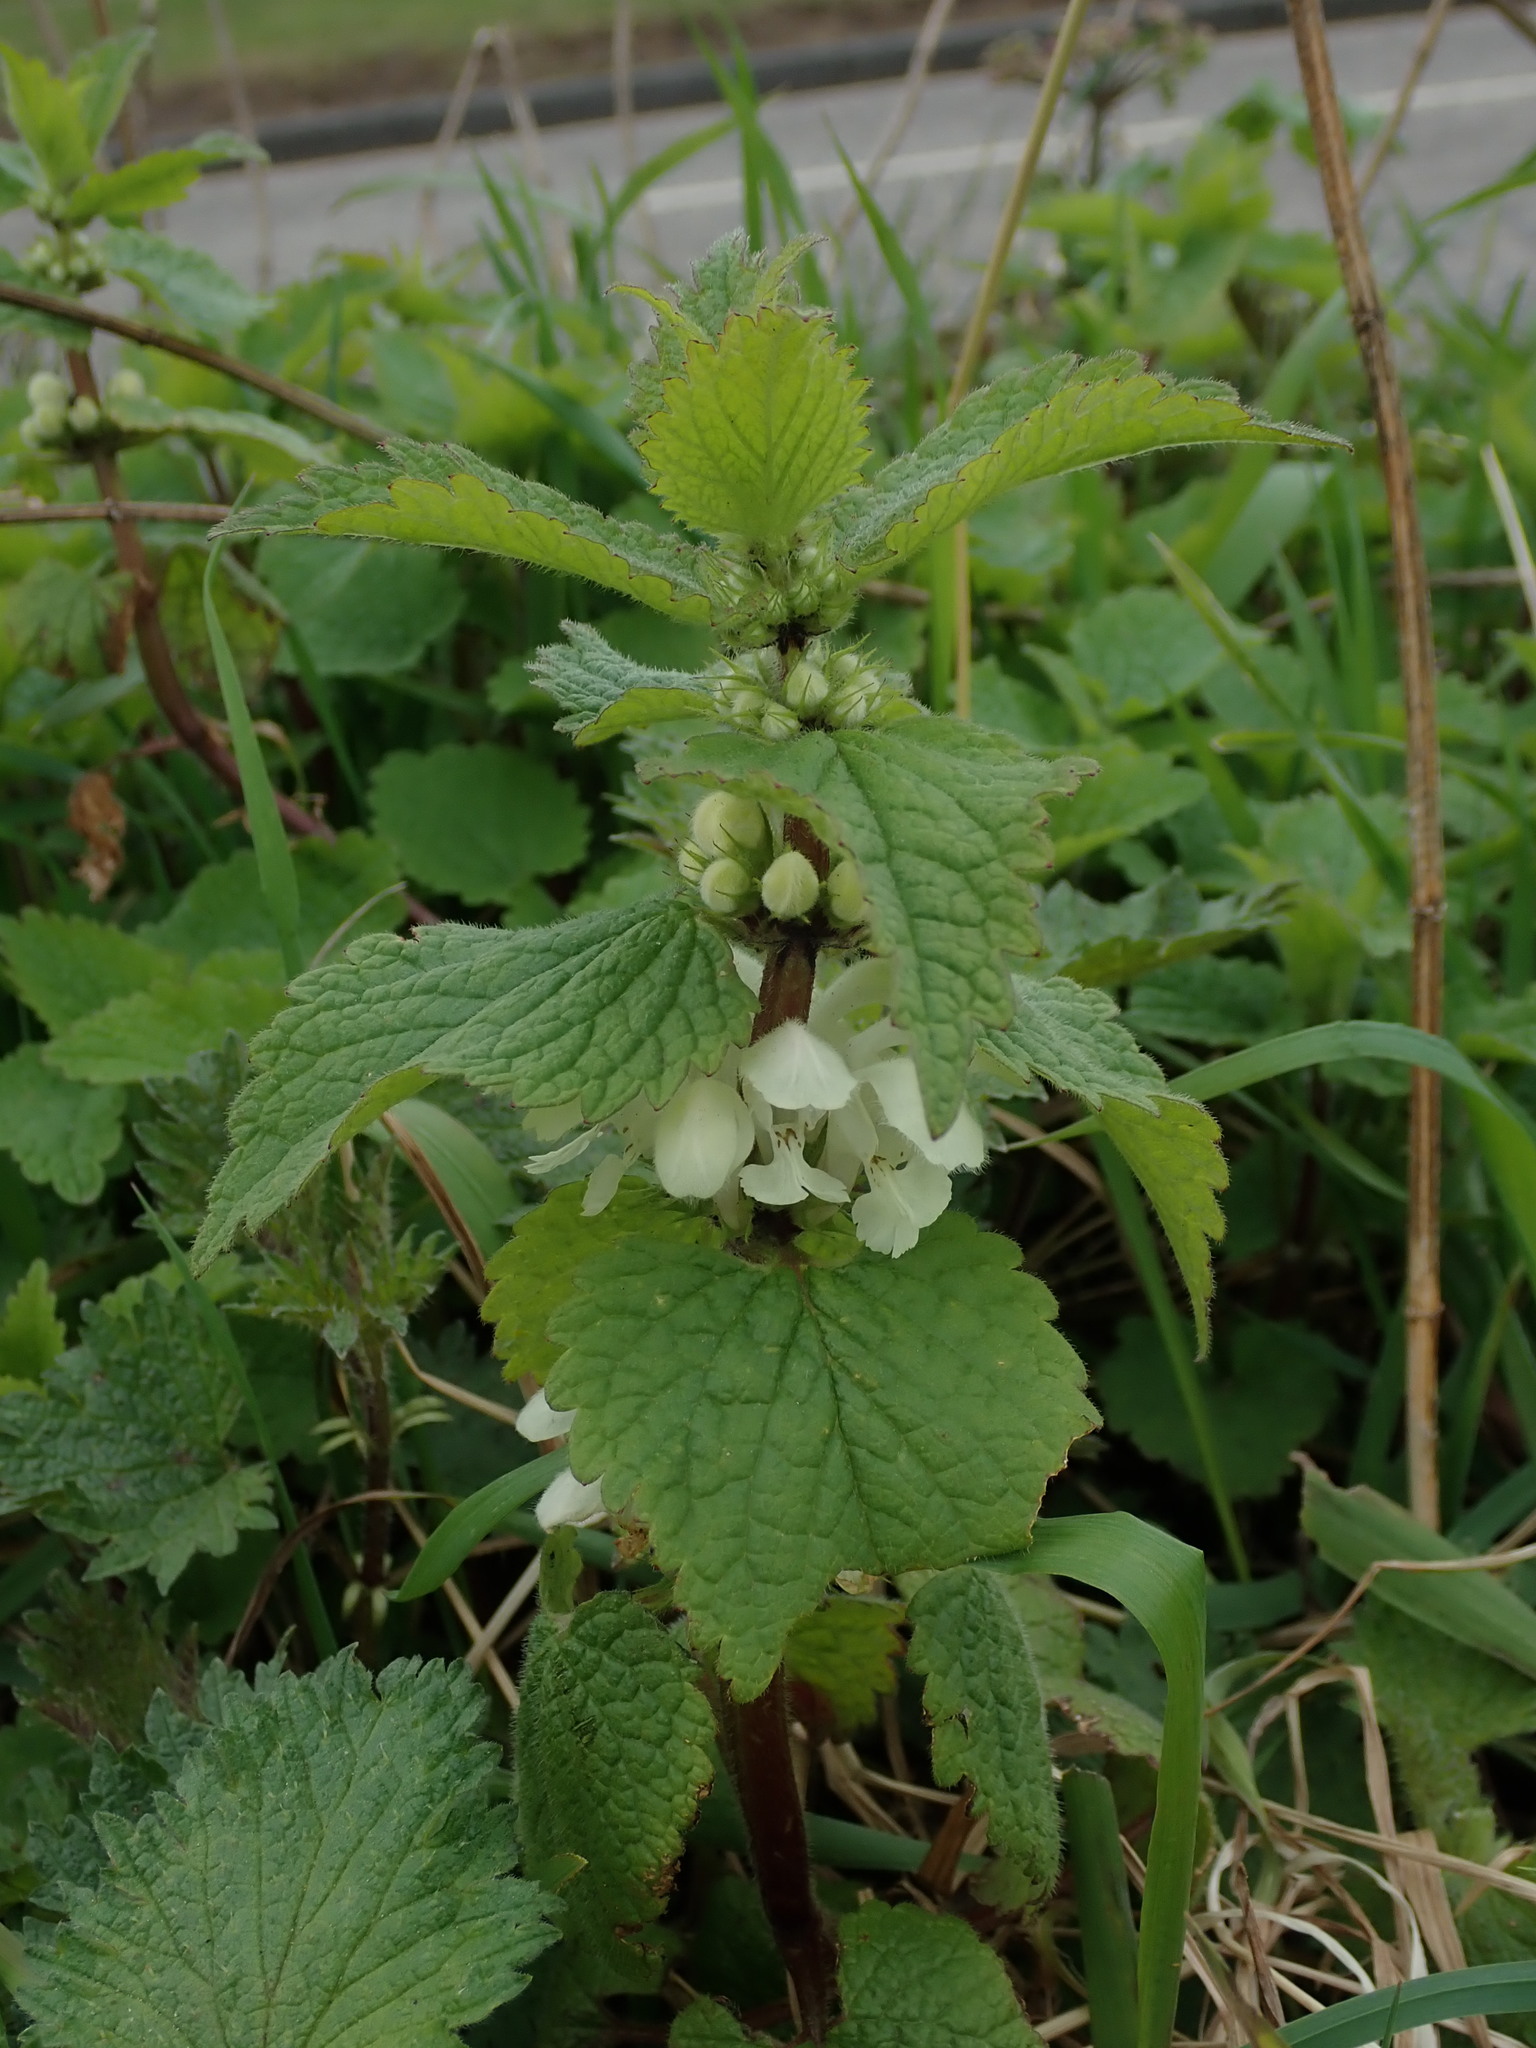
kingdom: Plantae
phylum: Tracheophyta
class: Magnoliopsida
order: Lamiales
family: Lamiaceae
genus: Lamium
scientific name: Lamium album
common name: White dead-nettle
